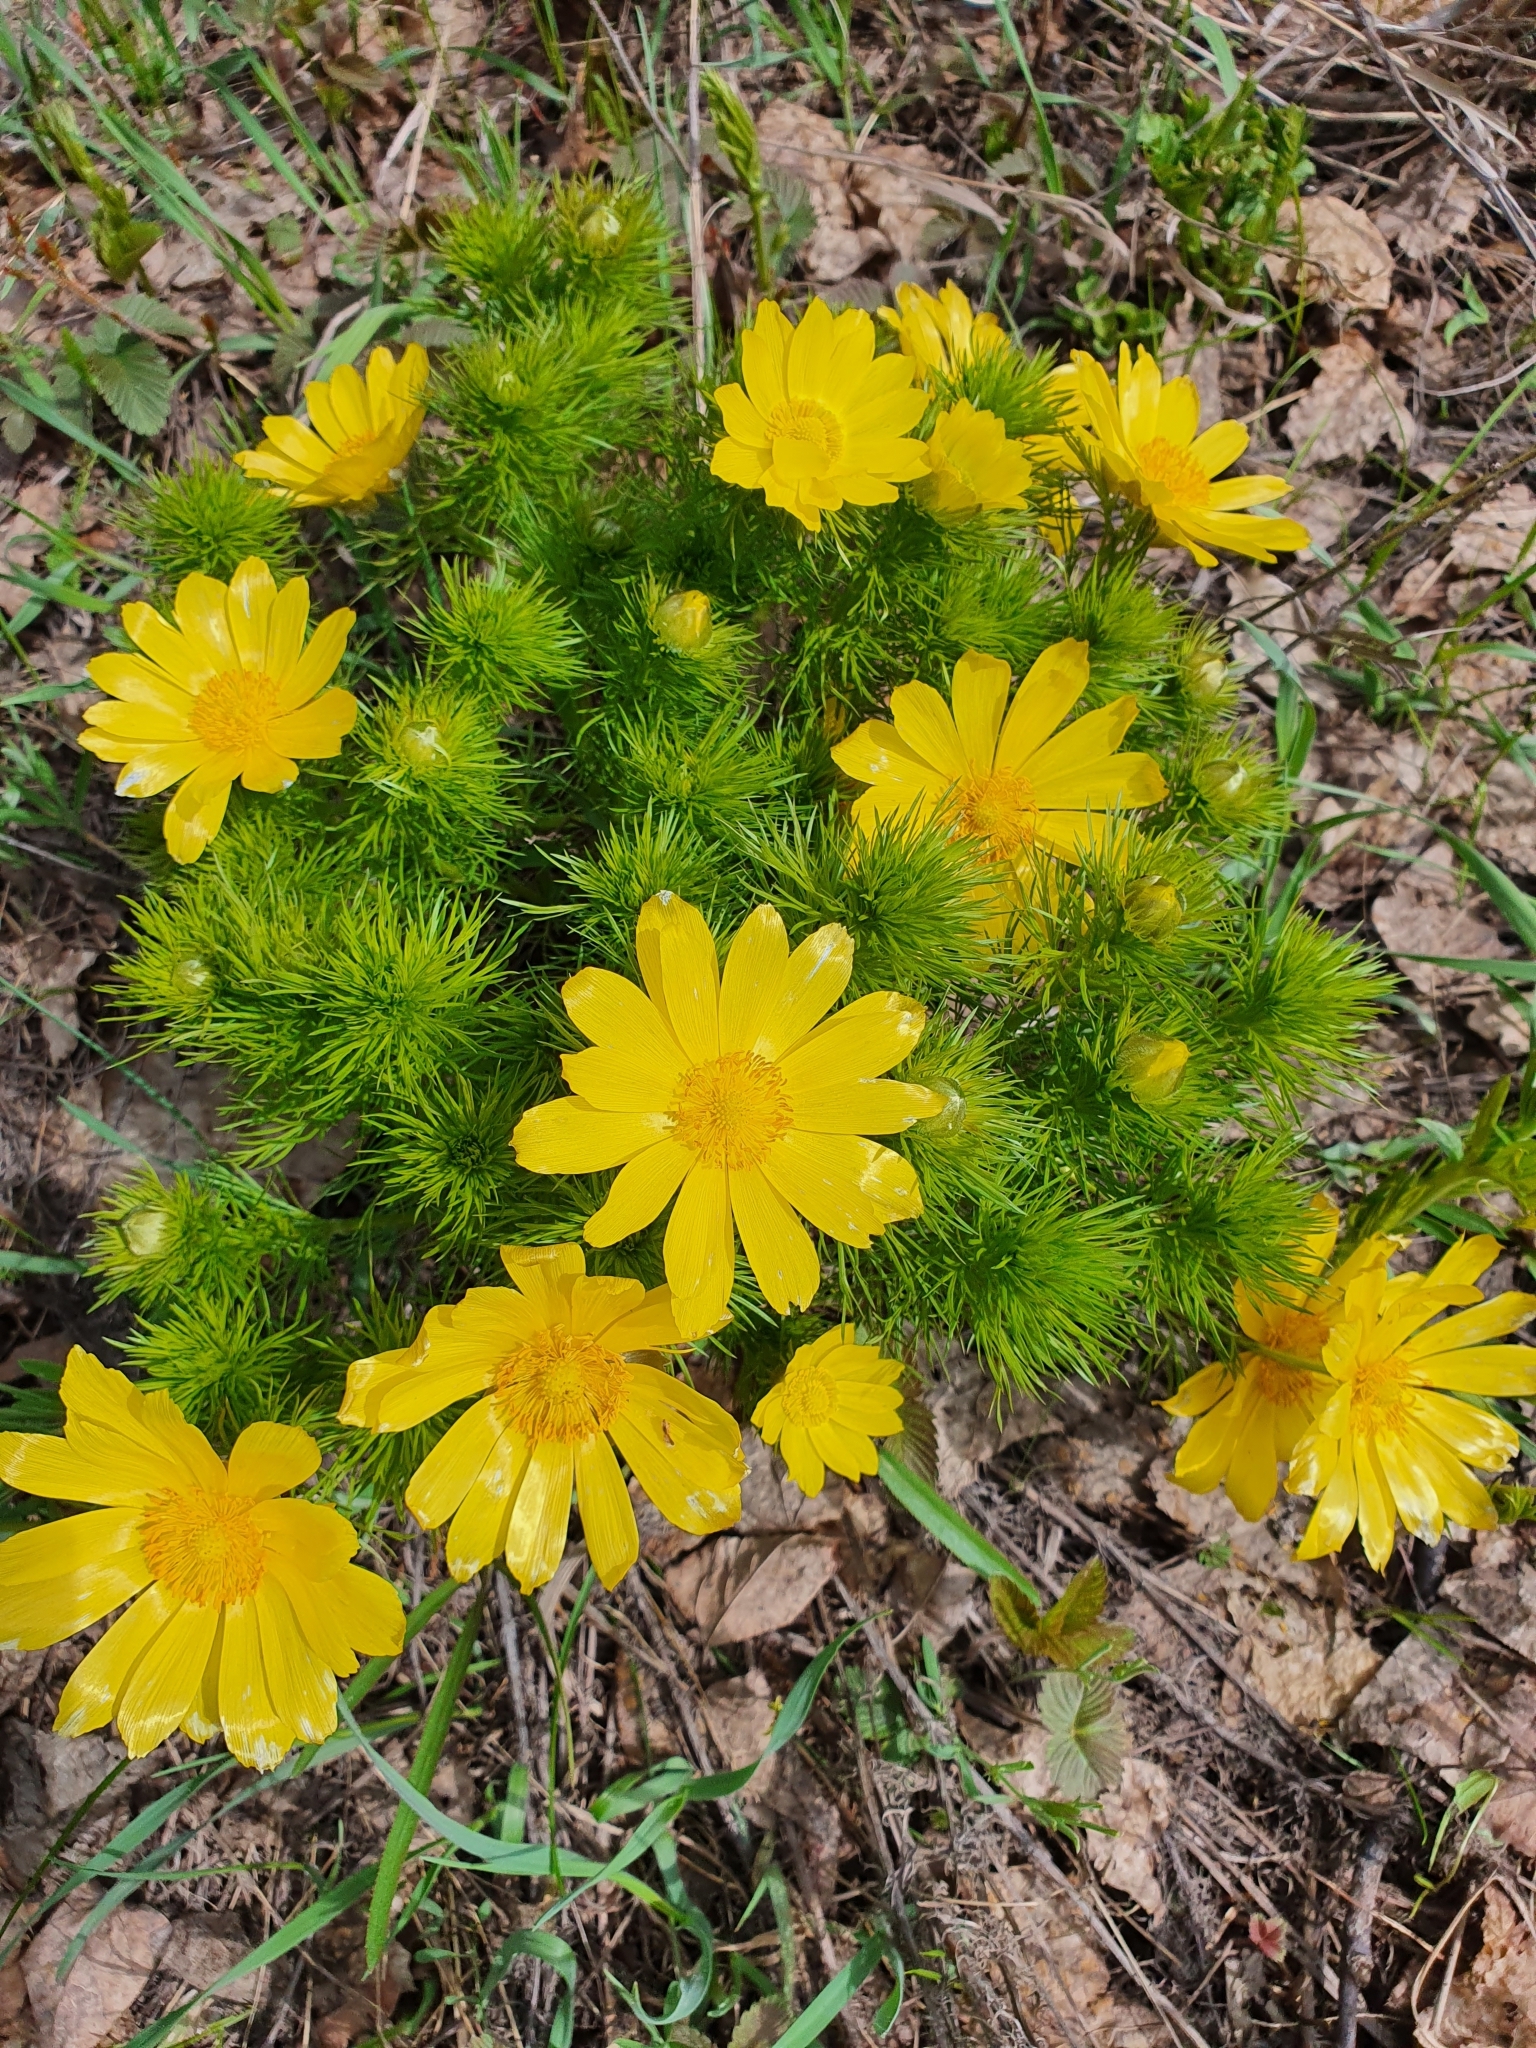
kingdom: Plantae
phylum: Tracheophyta
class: Magnoliopsida
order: Ranunculales
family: Ranunculaceae
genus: Adonis
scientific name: Adonis vernalis
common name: Yellow pheasants-eye
